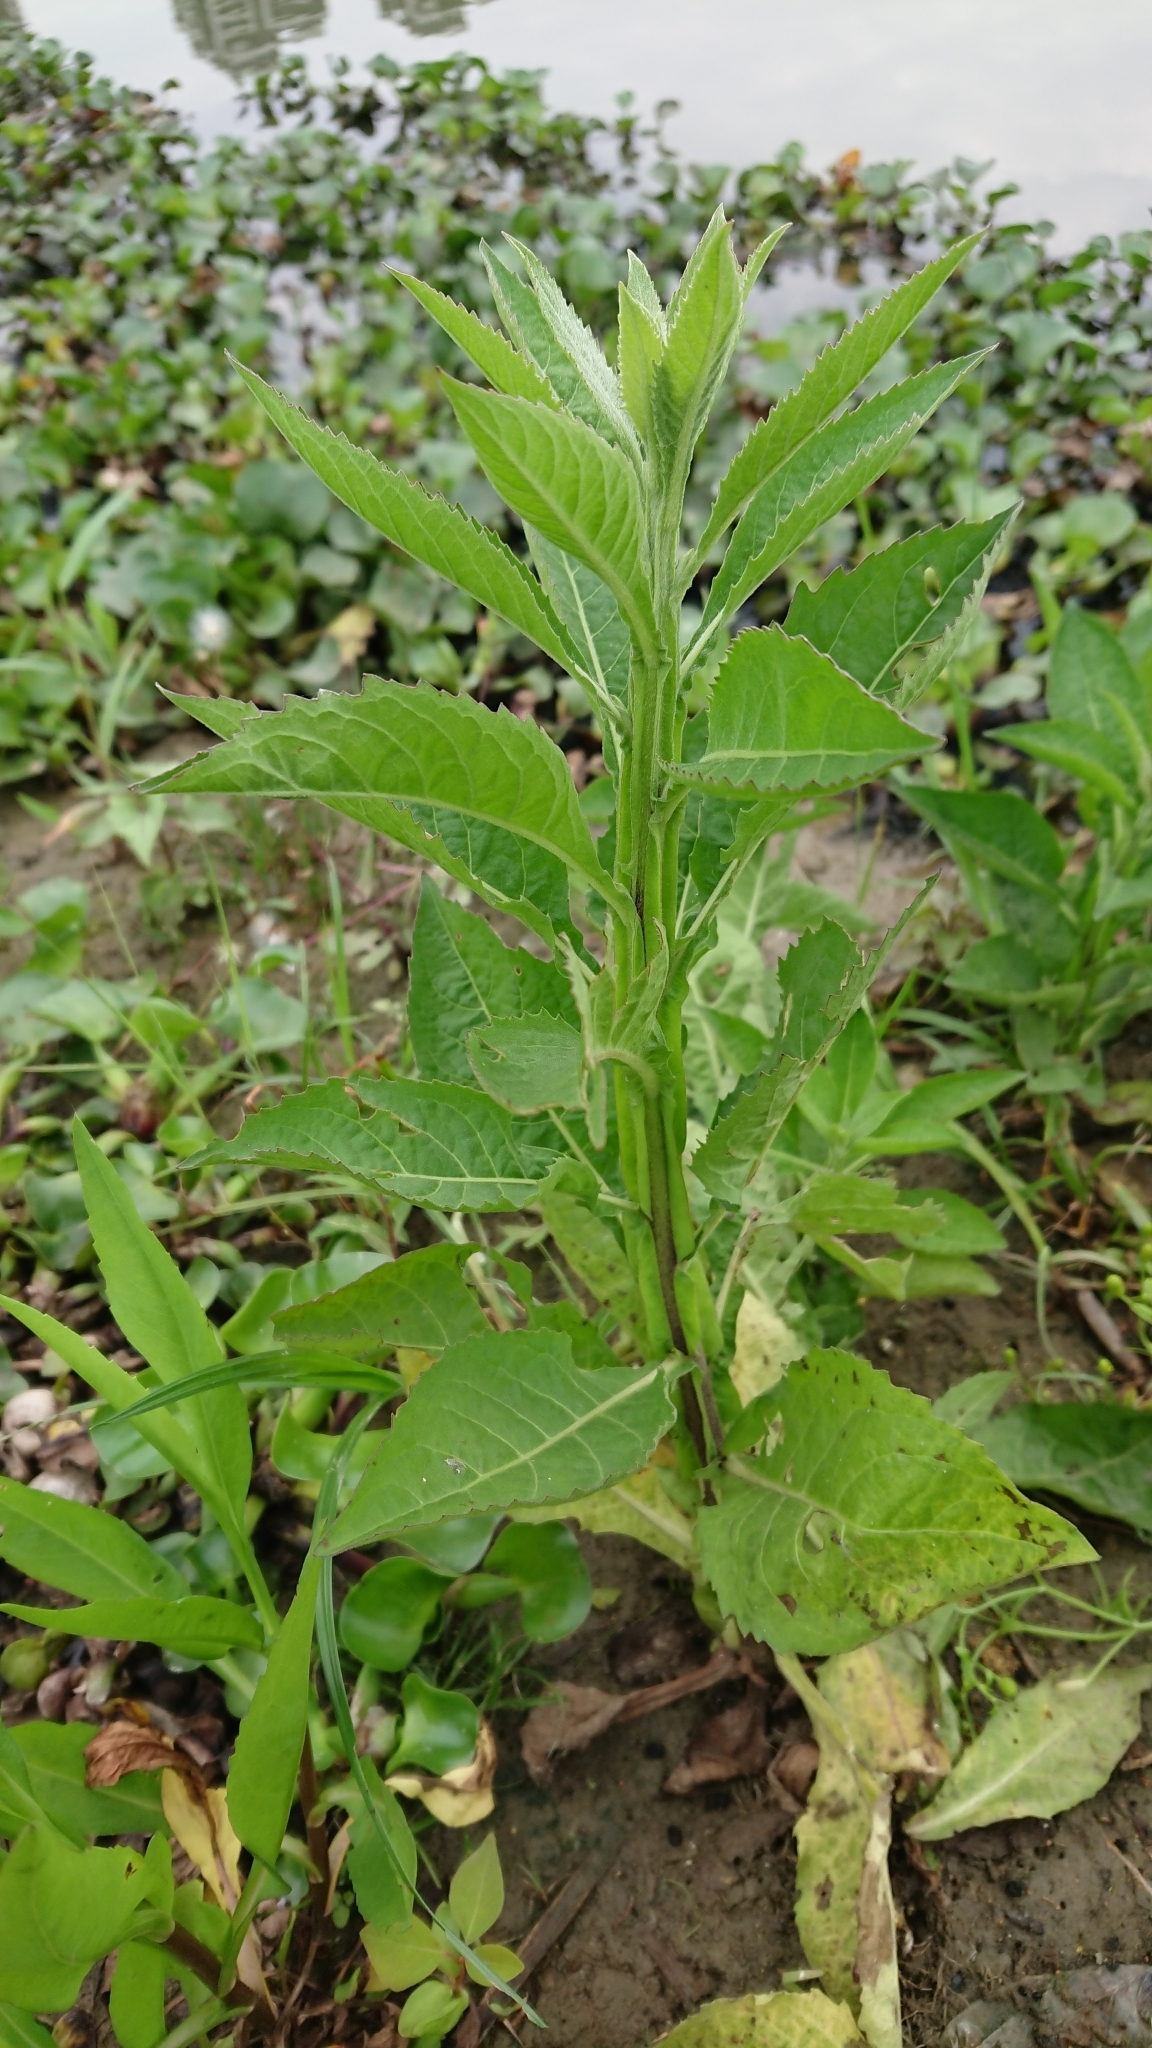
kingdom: Plantae
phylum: Tracheophyta
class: Magnoliopsida
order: Asterales
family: Asteraceae
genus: Pluchea
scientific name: Pluchea sagittalis
